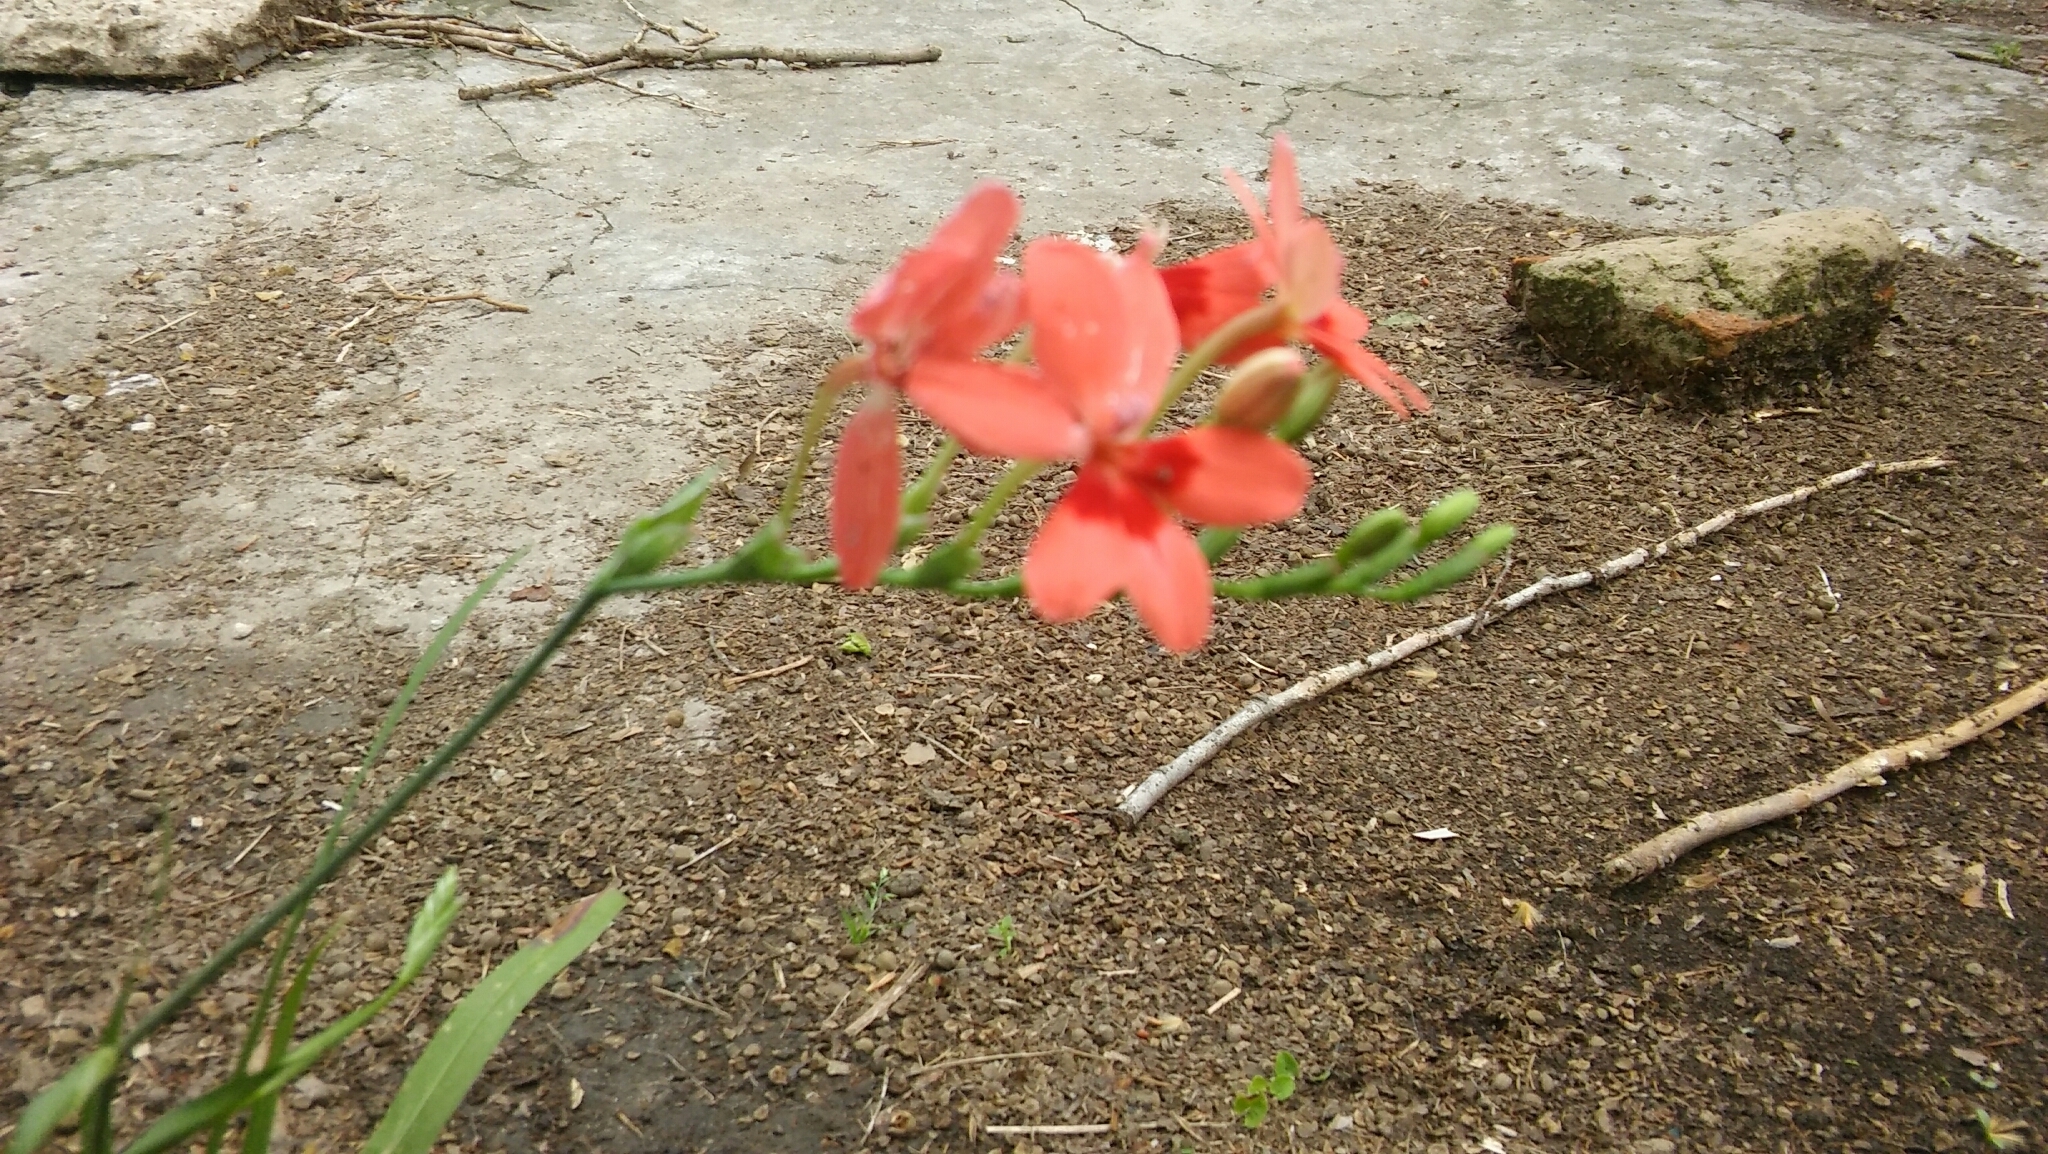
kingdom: Plantae
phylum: Tracheophyta
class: Liliopsida
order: Asparagales
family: Iridaceae
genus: Freesia
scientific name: Freesia laxa
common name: False freesia
